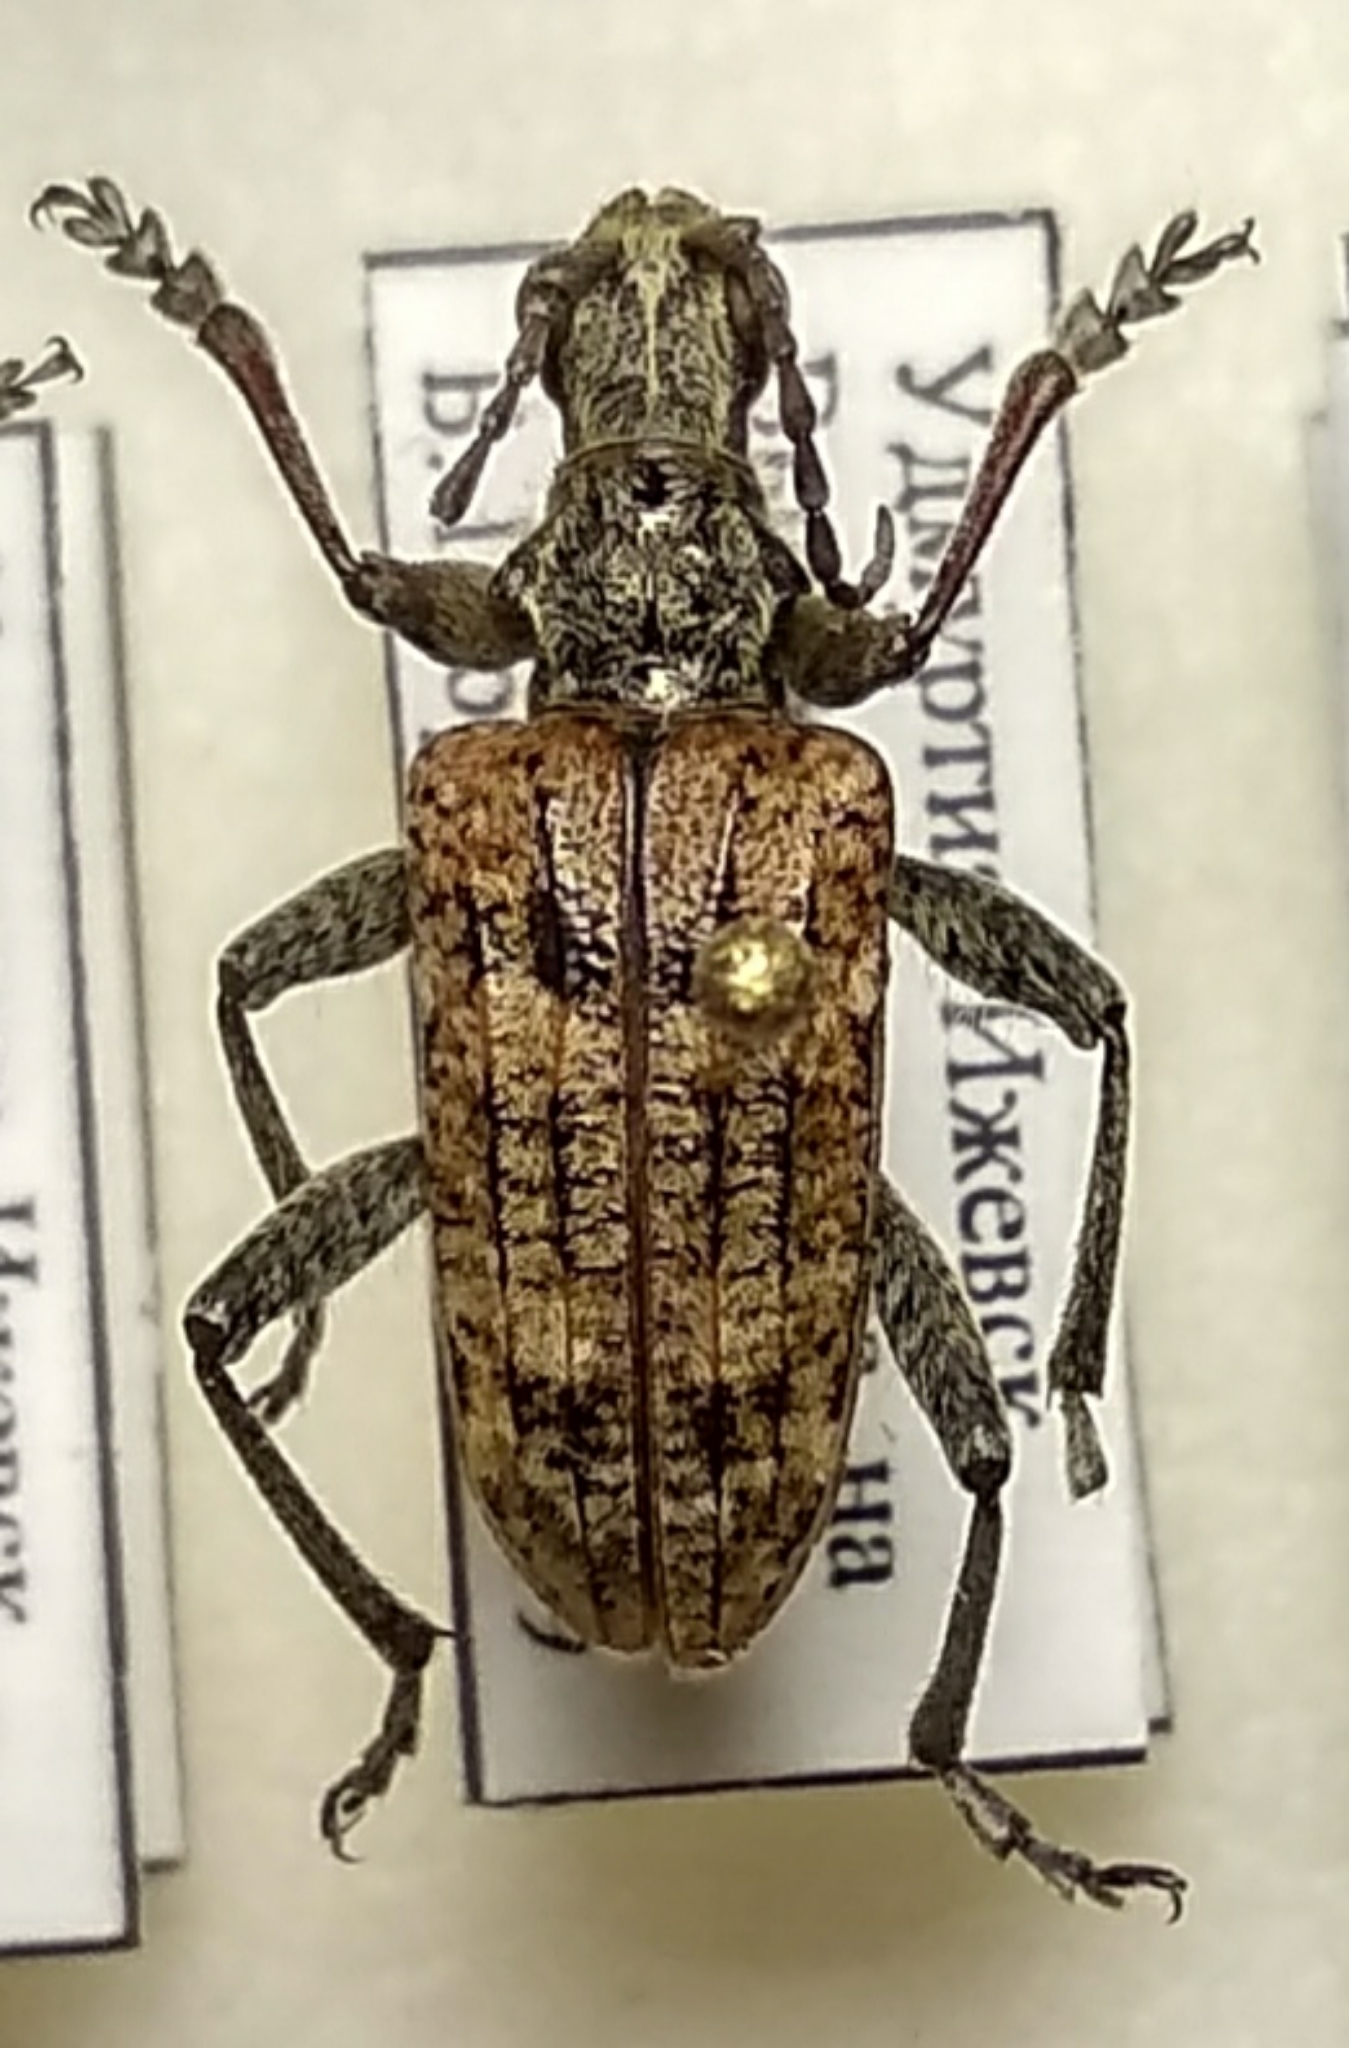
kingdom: Animalia
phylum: Arthropoda
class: Insecta
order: Coleoptera
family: Cerambycidae
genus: Rhagium
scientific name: Rhagium inquisitor
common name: Ribbed pine borer
